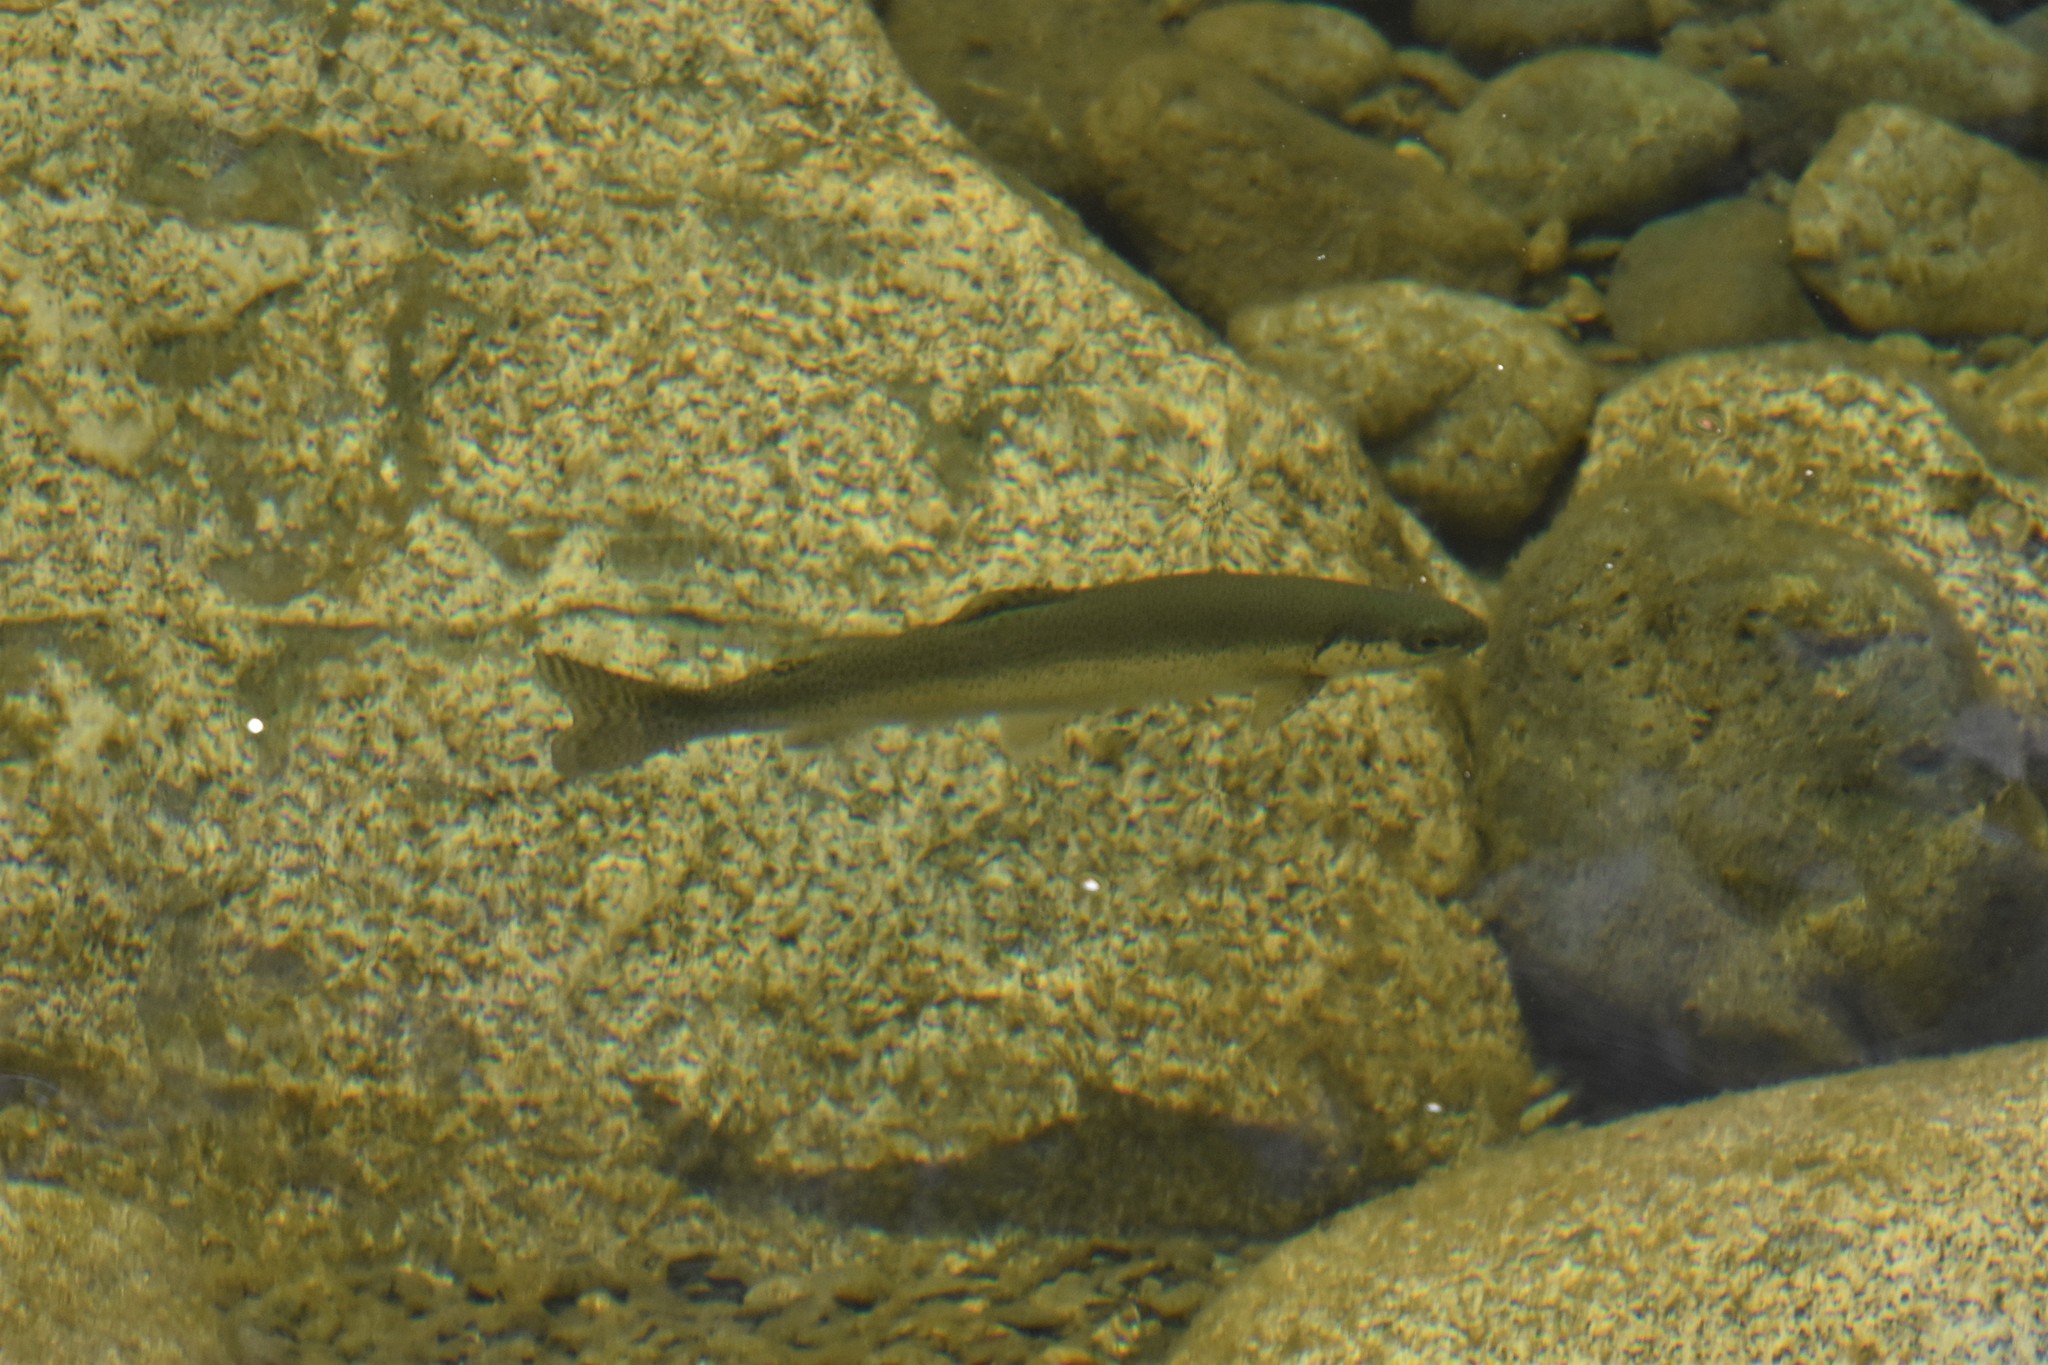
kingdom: Animalia
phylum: Chordata
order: Salmoniformes
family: Salmonidae
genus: Oncorhynchus
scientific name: Oncorhynchus mykiss
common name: Rainbow trout
